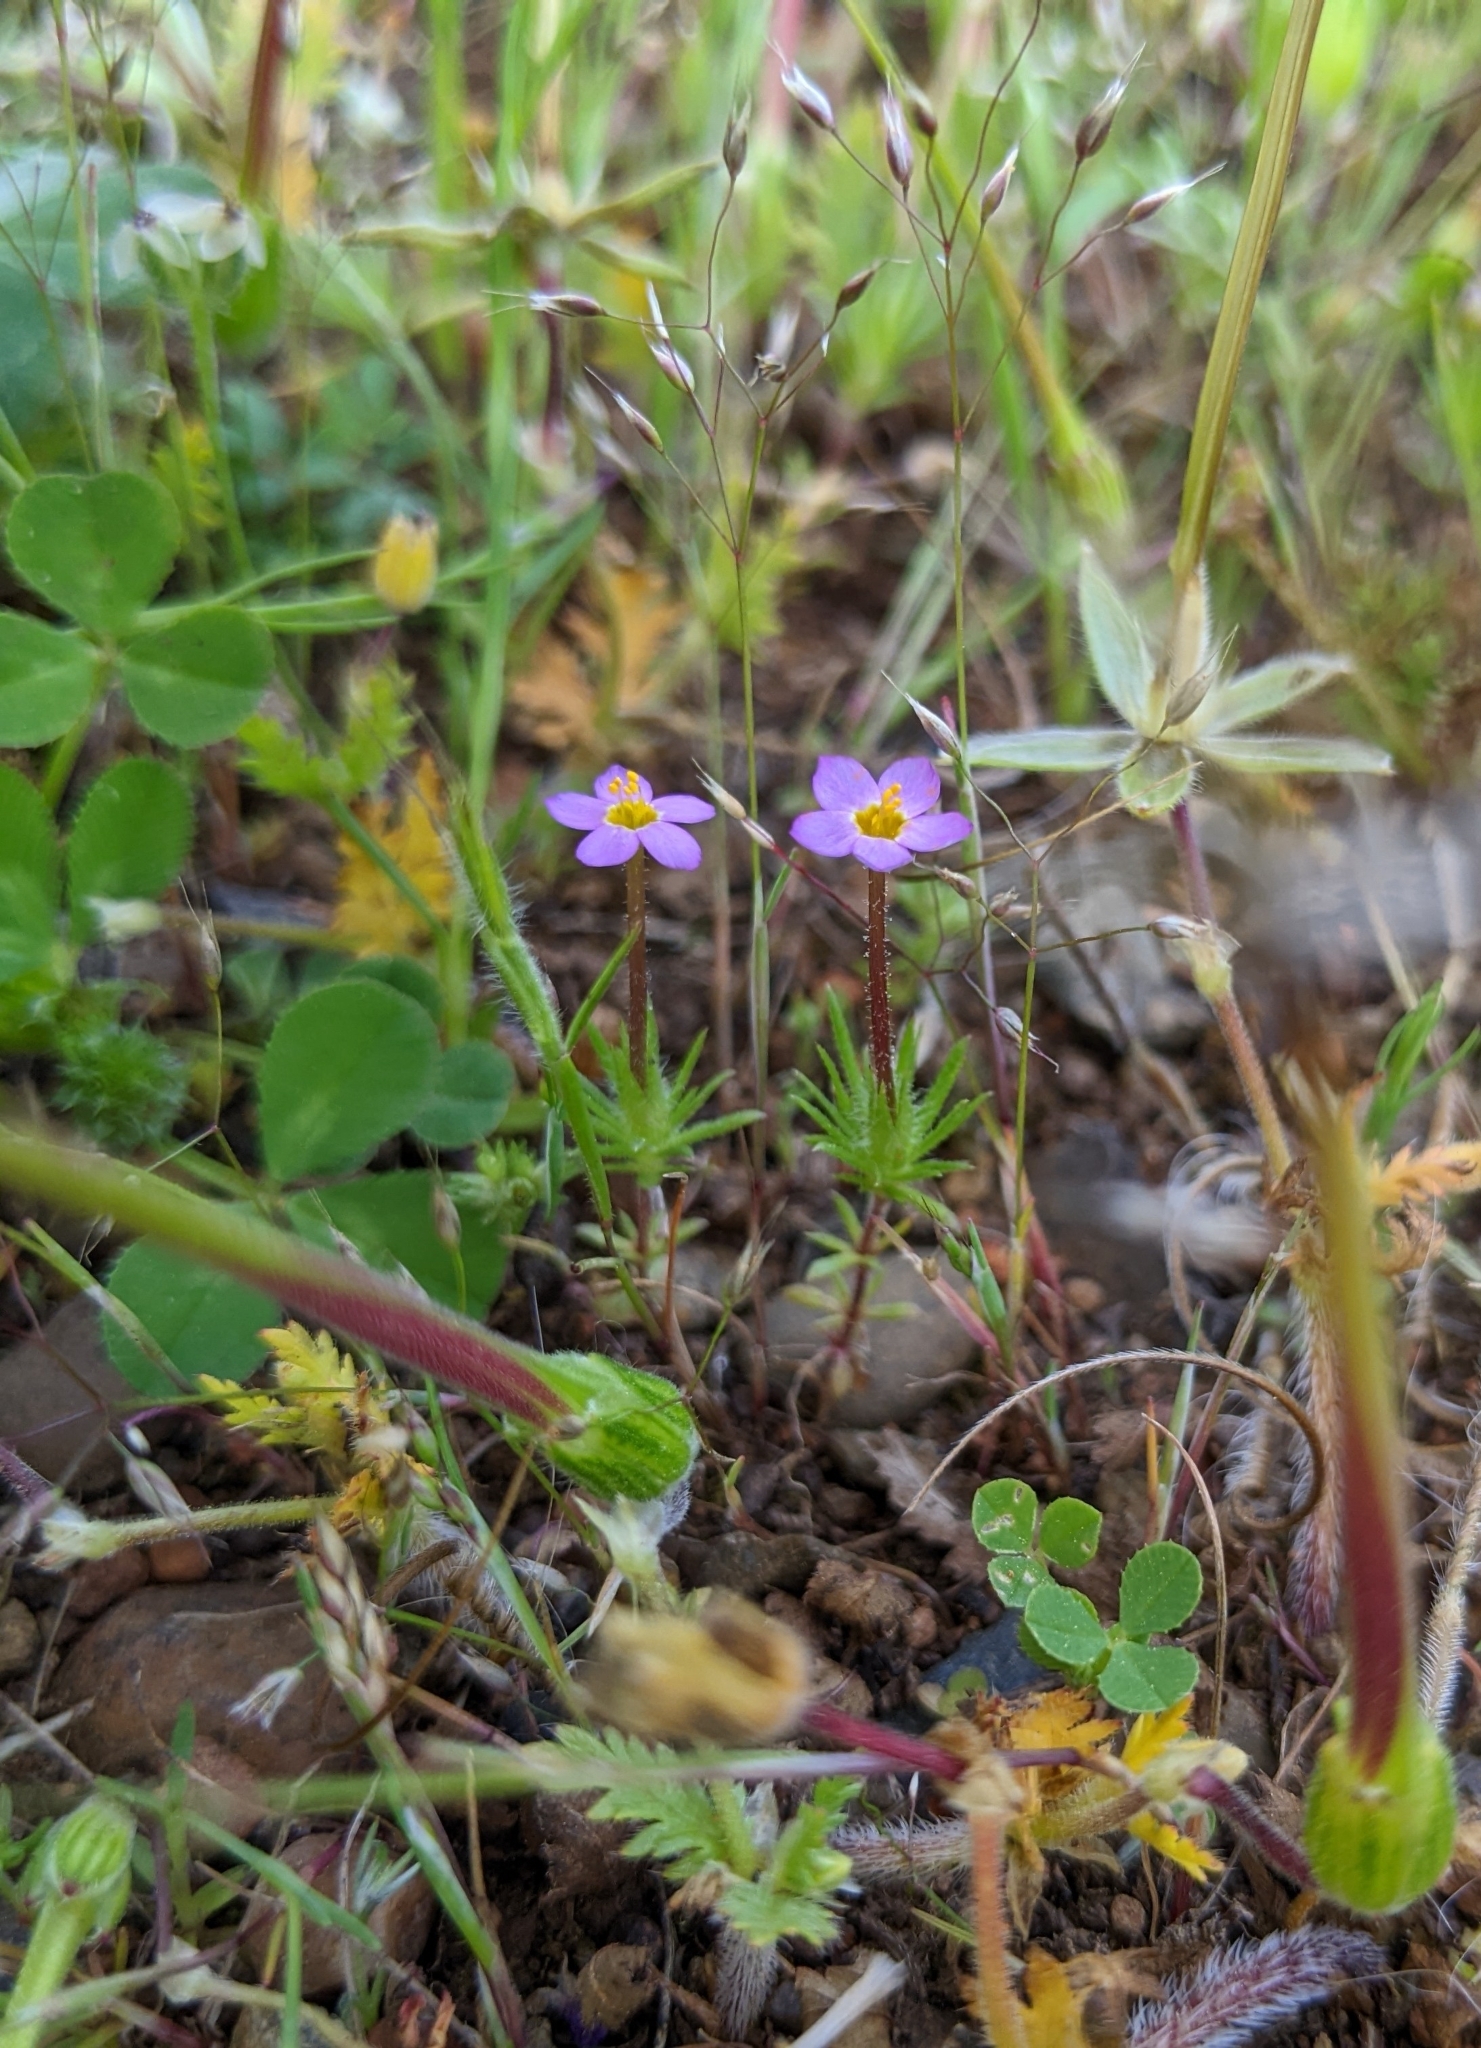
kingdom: Plantae
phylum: Tracheophyta
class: Magnoliopsida
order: Ericales
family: Polemoniaceae
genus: Leptosiphon
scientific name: Leptosiphon bicolor
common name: True babystars
